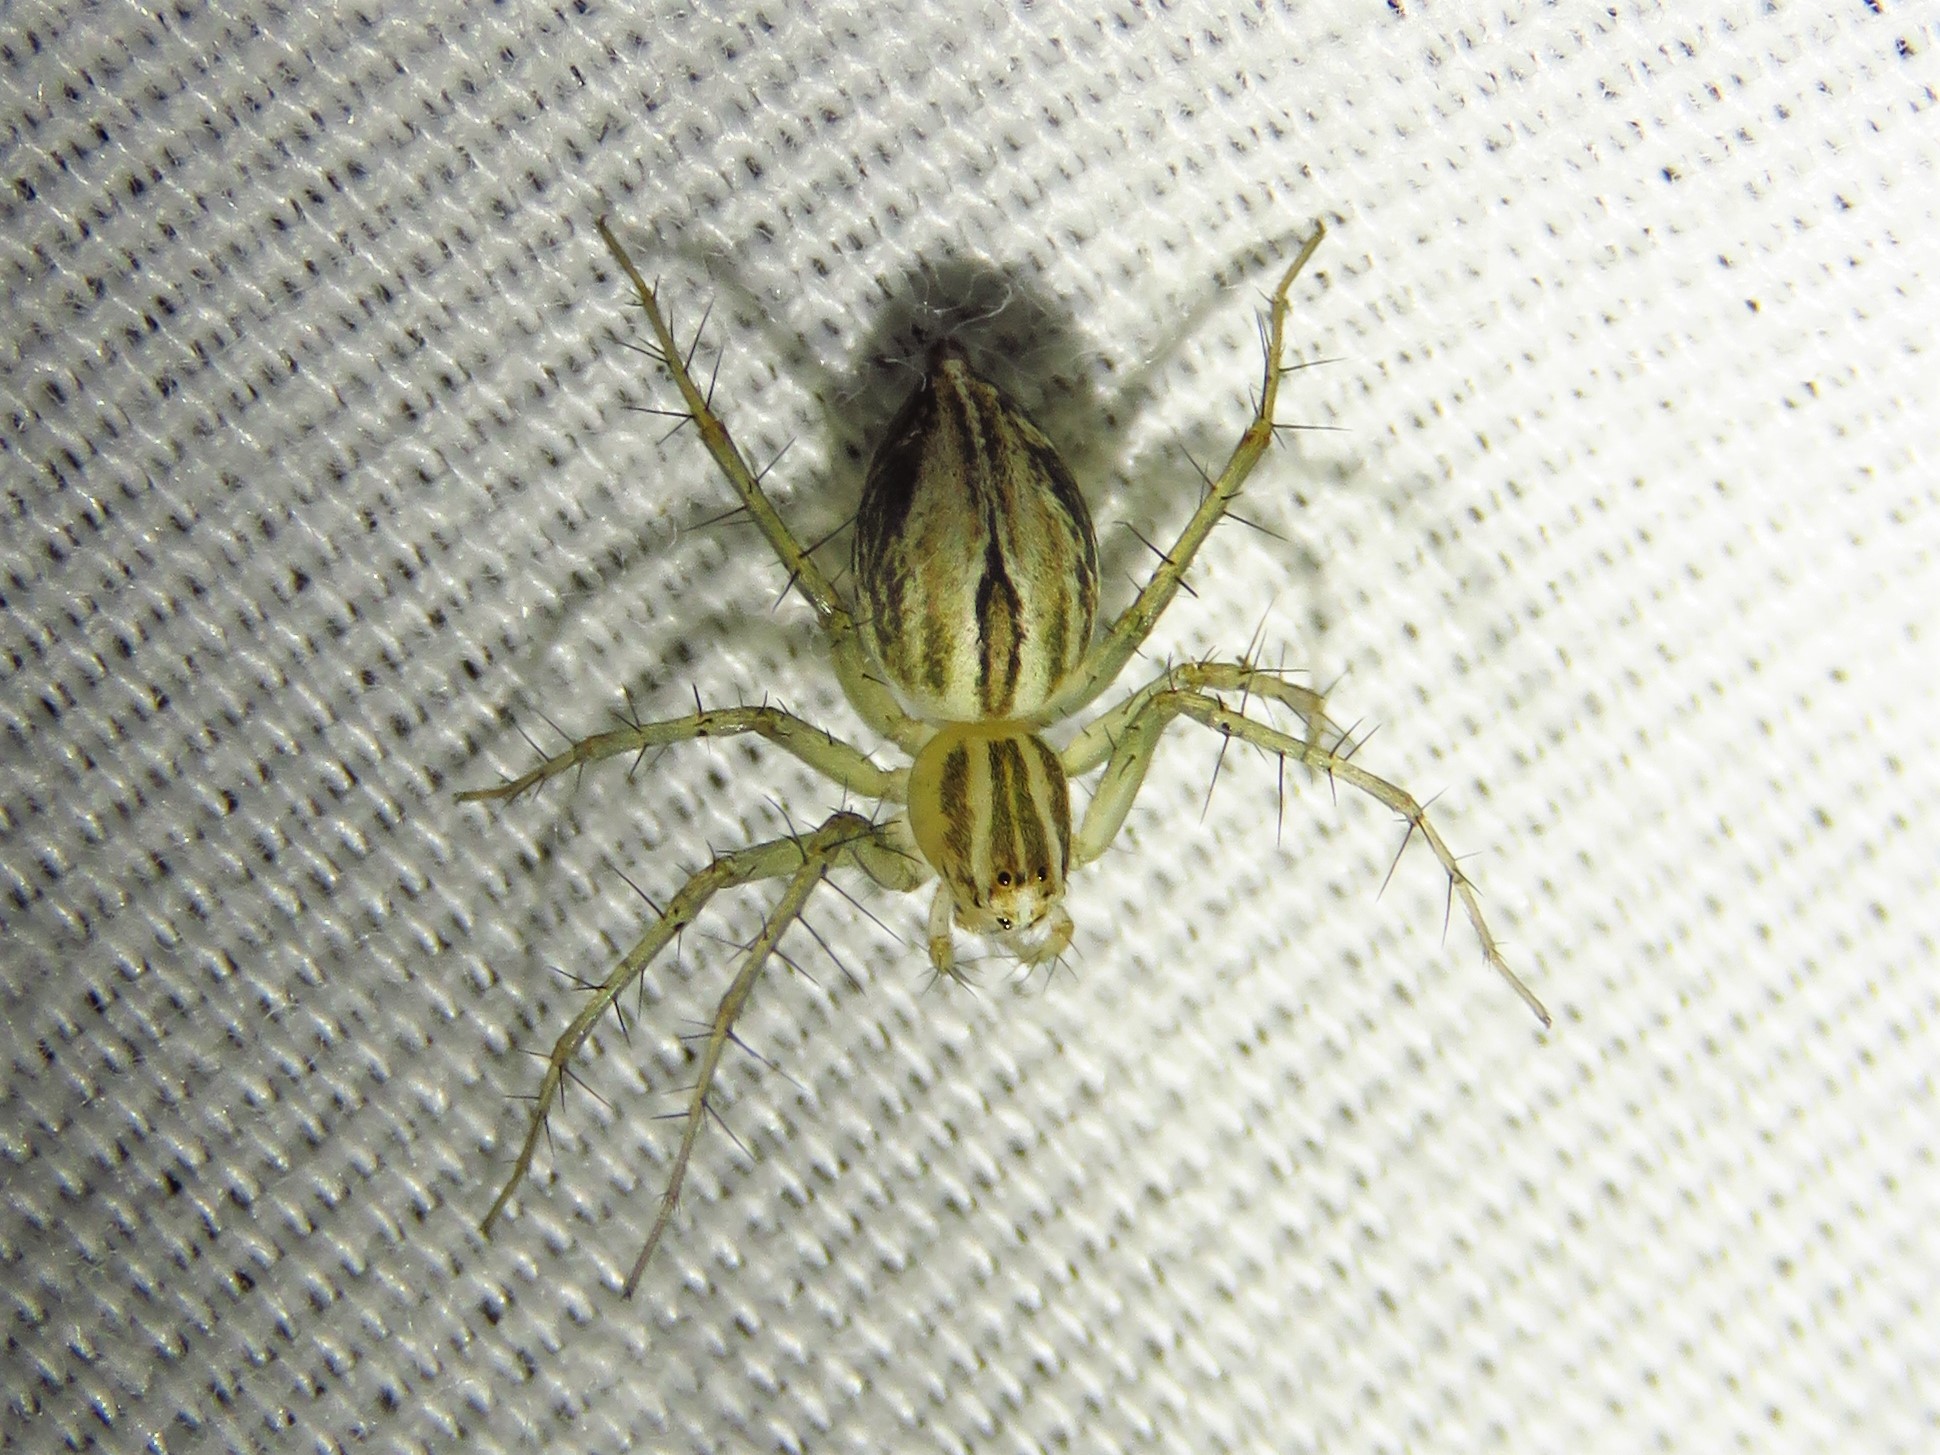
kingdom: Animalia
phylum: Arthropoda
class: Arachnida
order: Araneae
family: Oxyopidae
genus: Oxyopes
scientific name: Oxyopes salticus
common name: Lynx spiders
